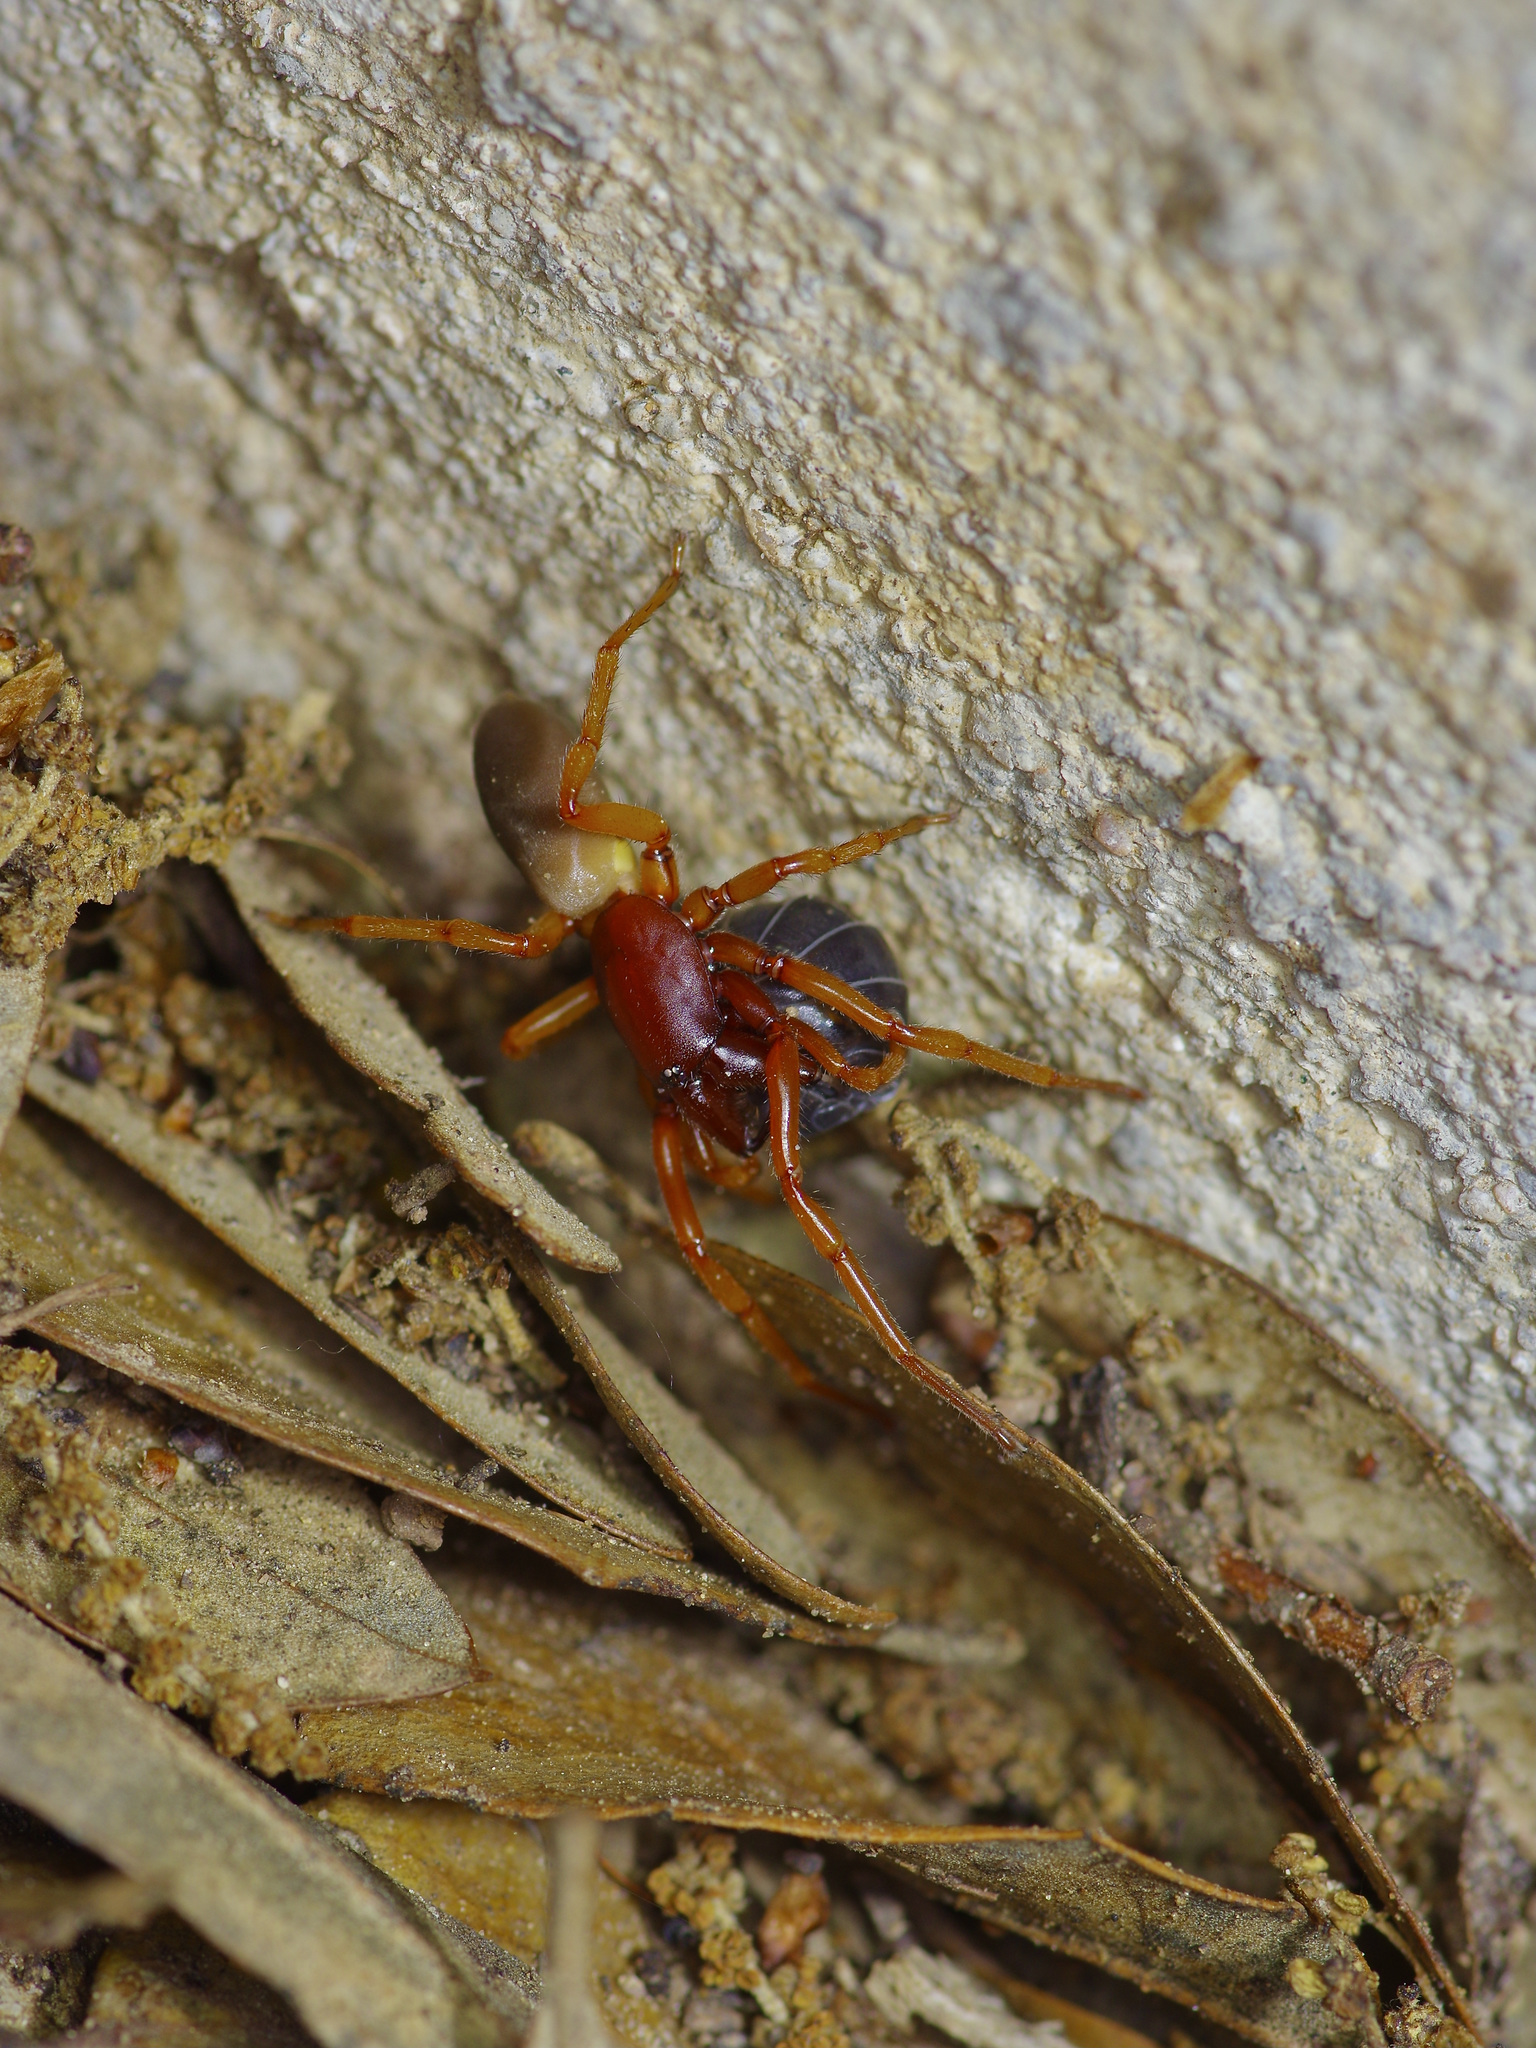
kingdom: Animalia
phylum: Arthropoda
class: Arachnida
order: Araneae
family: Dysderidae
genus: Dysdera
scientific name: Dysdera crocata
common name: Woodlouse spider
